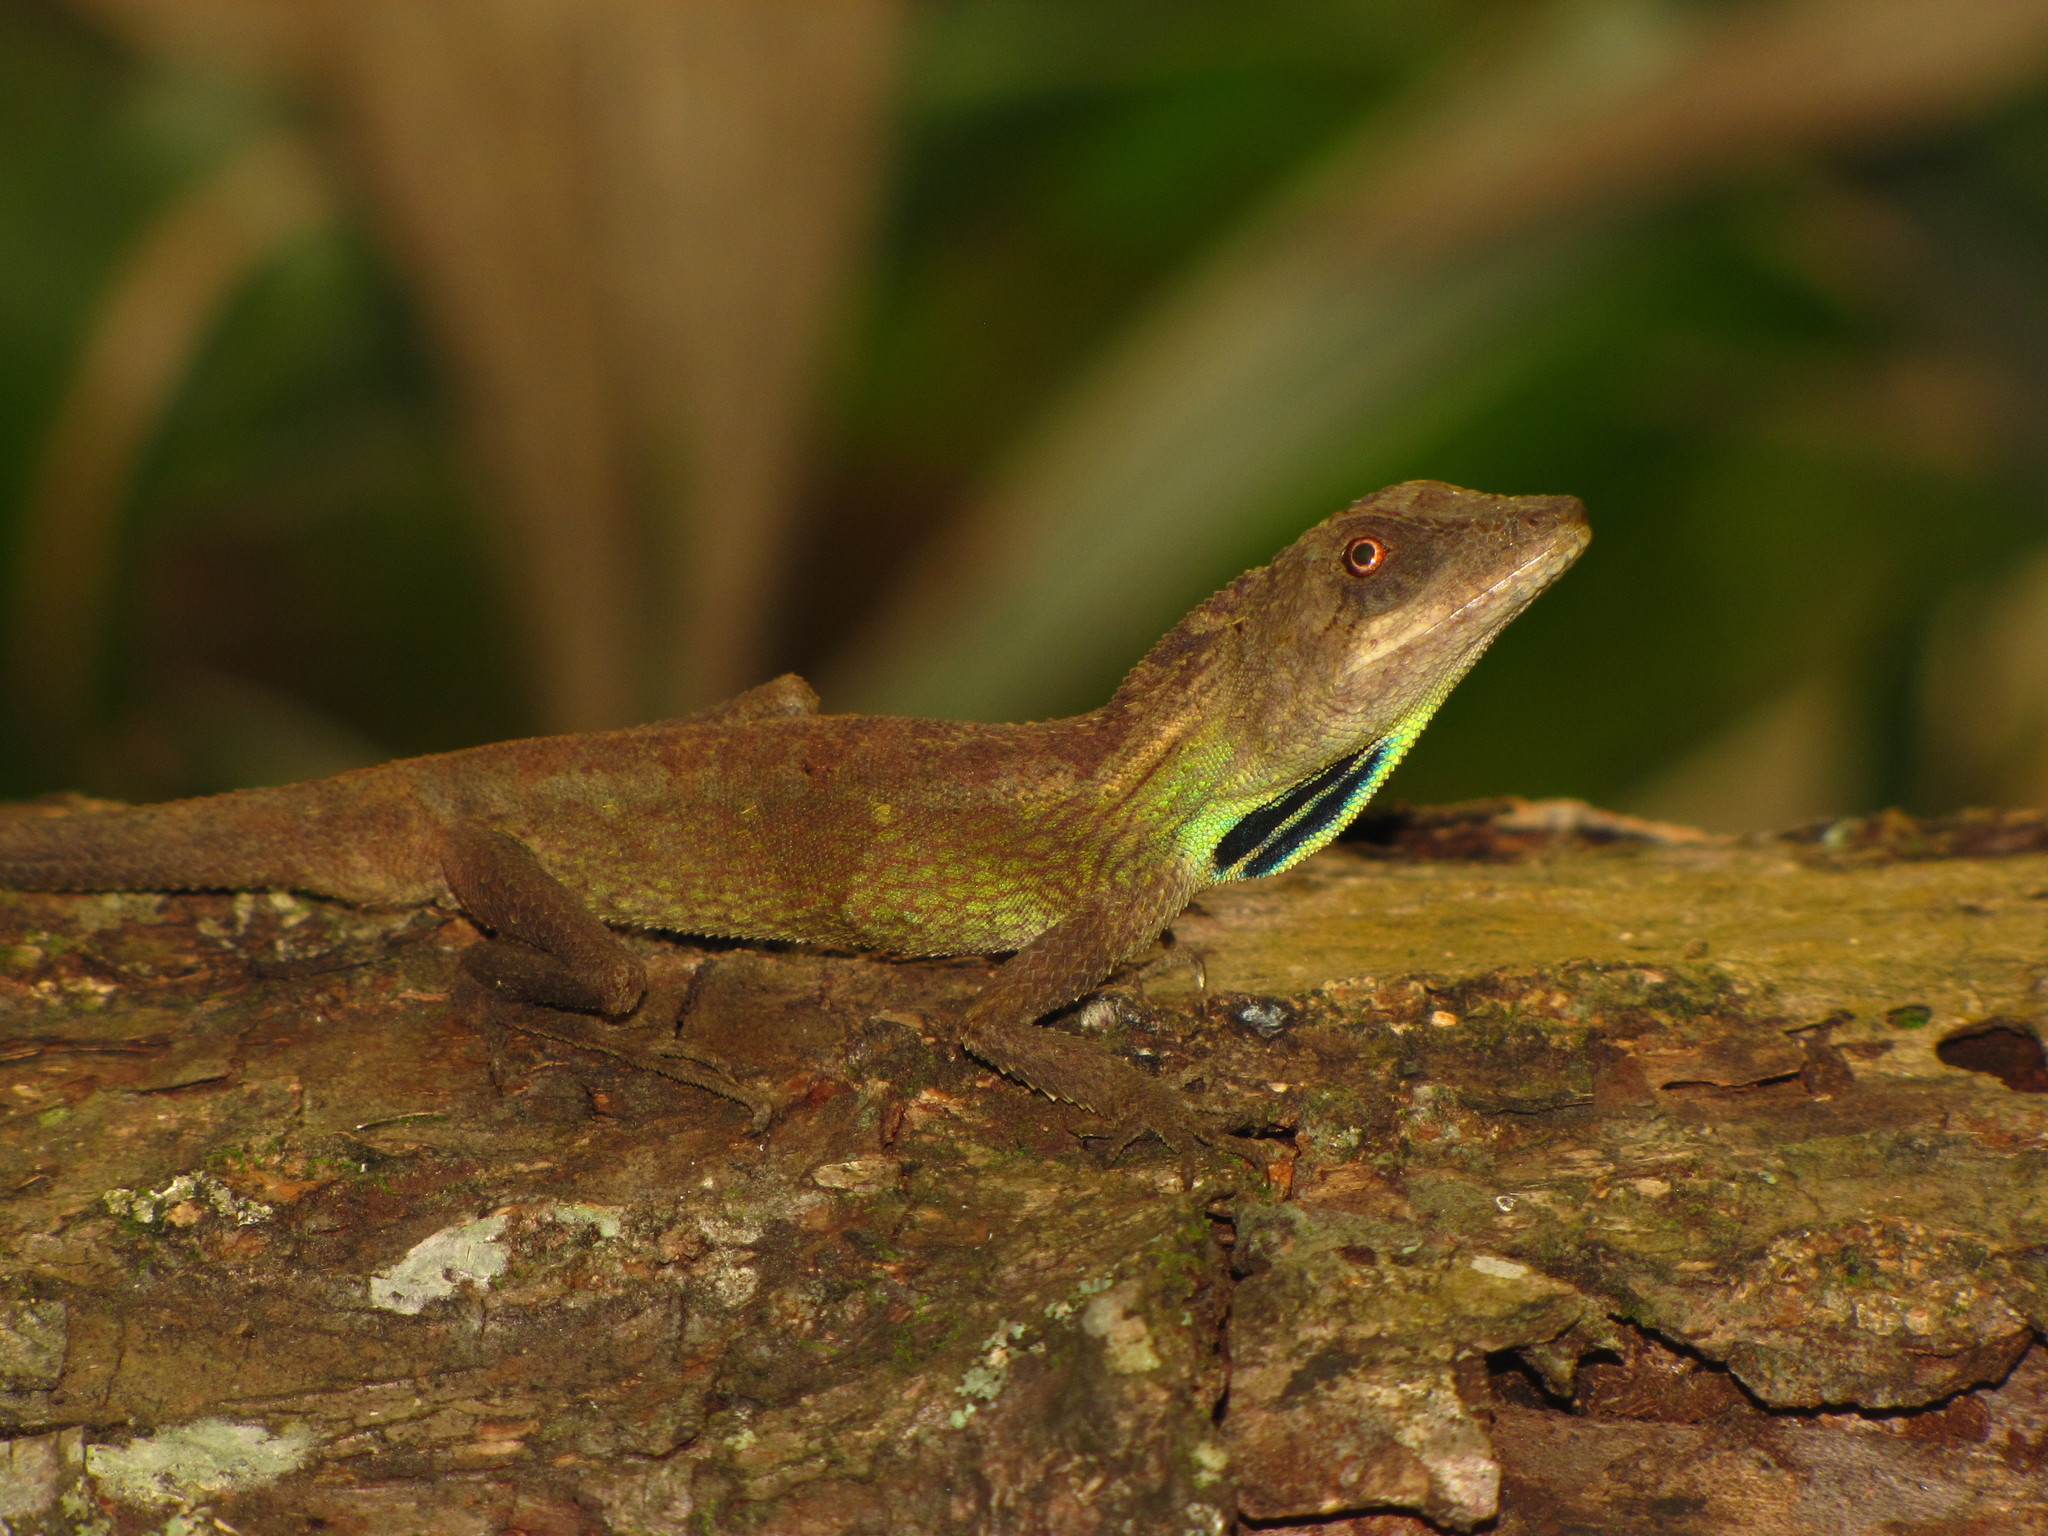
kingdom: Animalia
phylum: Chordata
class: Squamata
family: Agamidae
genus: Ptyctolaemus
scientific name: Ptyctolaemus gularis
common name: Green fan-throated lizard
